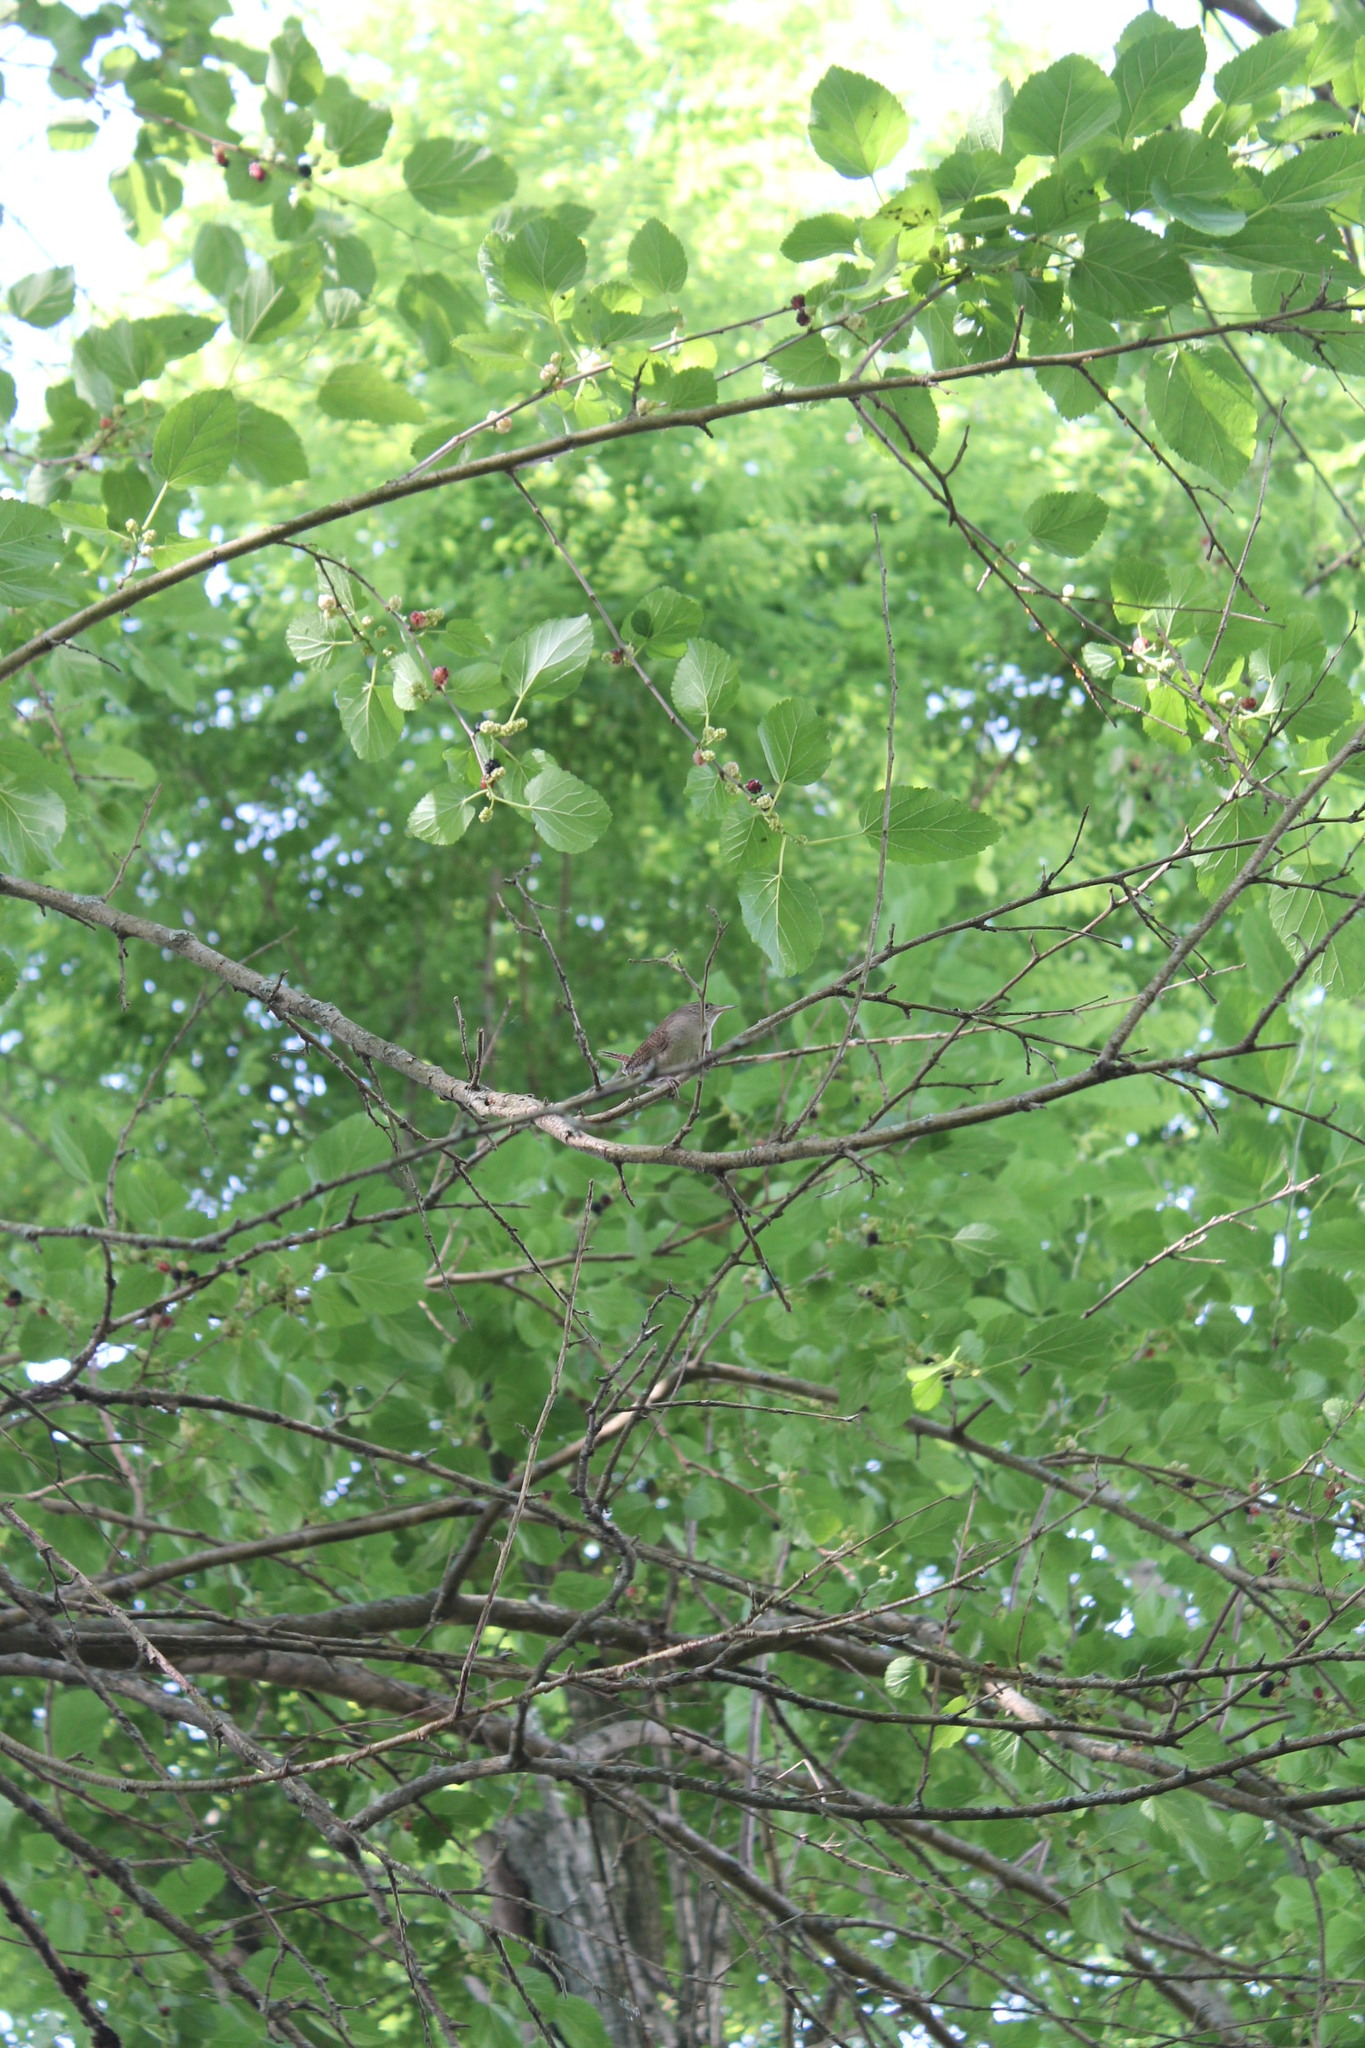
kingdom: Animalia
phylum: Chordata
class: Aves
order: Passeriformes
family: Troglodytidae
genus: Troglodytes
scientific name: Troglodytes aedon
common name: House wren
